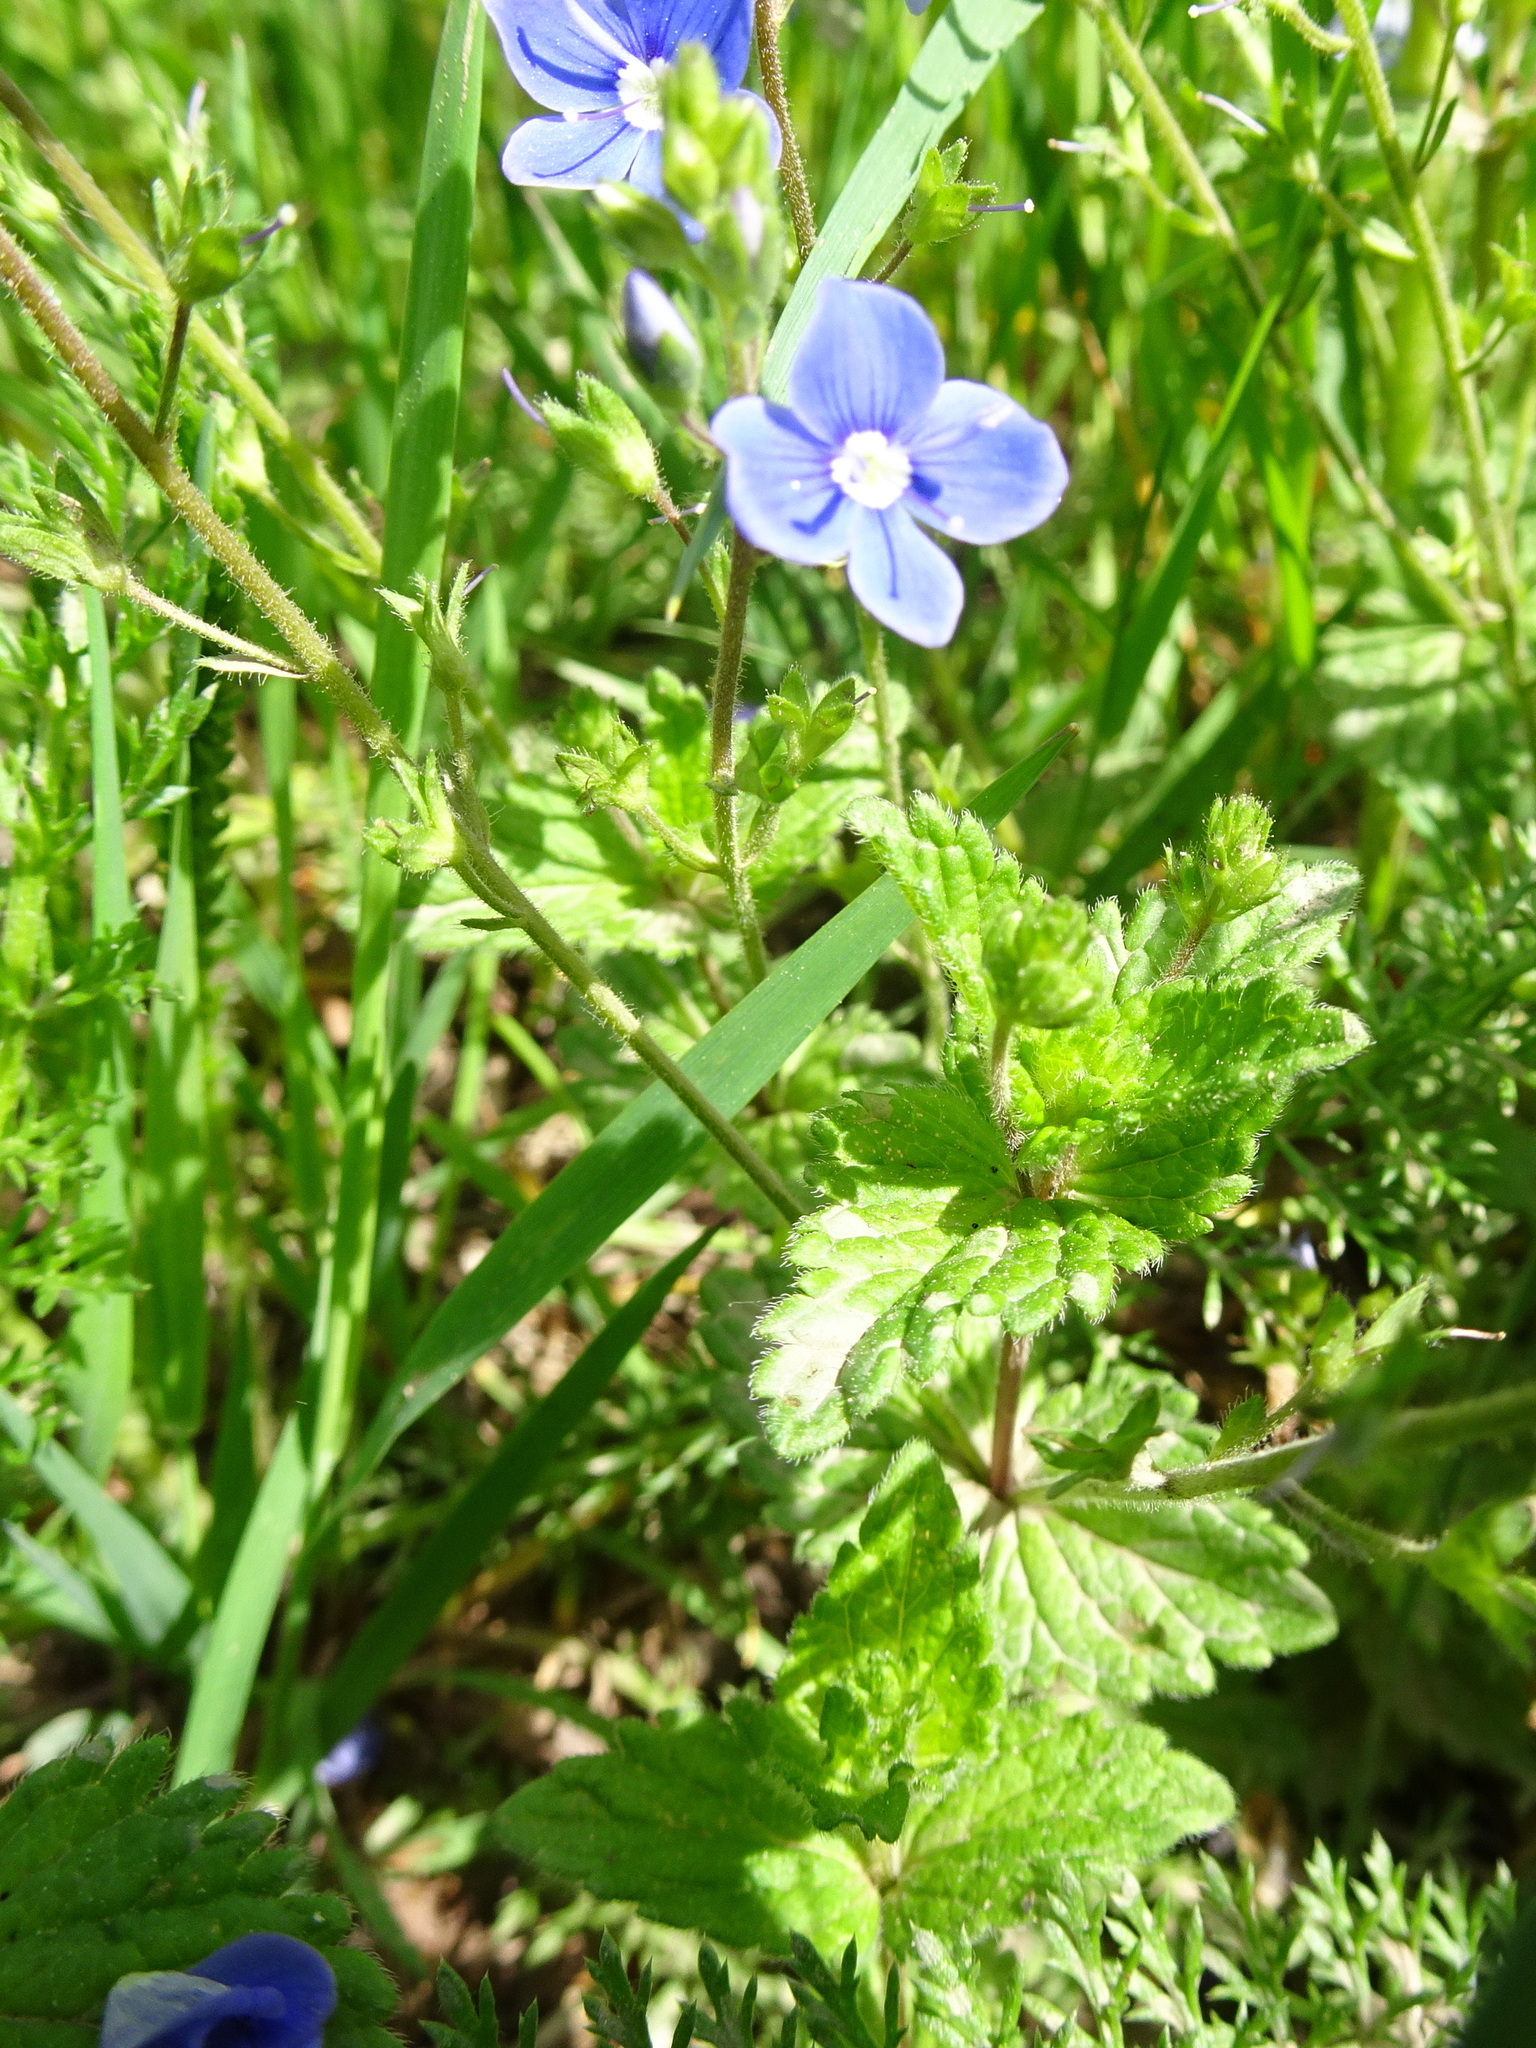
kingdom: Plantae
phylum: Tracheophyta
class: Magnoliopsida
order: Lamiales
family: Plantaginaceae
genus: Veronica
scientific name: Veronica chamaedrys
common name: Germander speedwell
